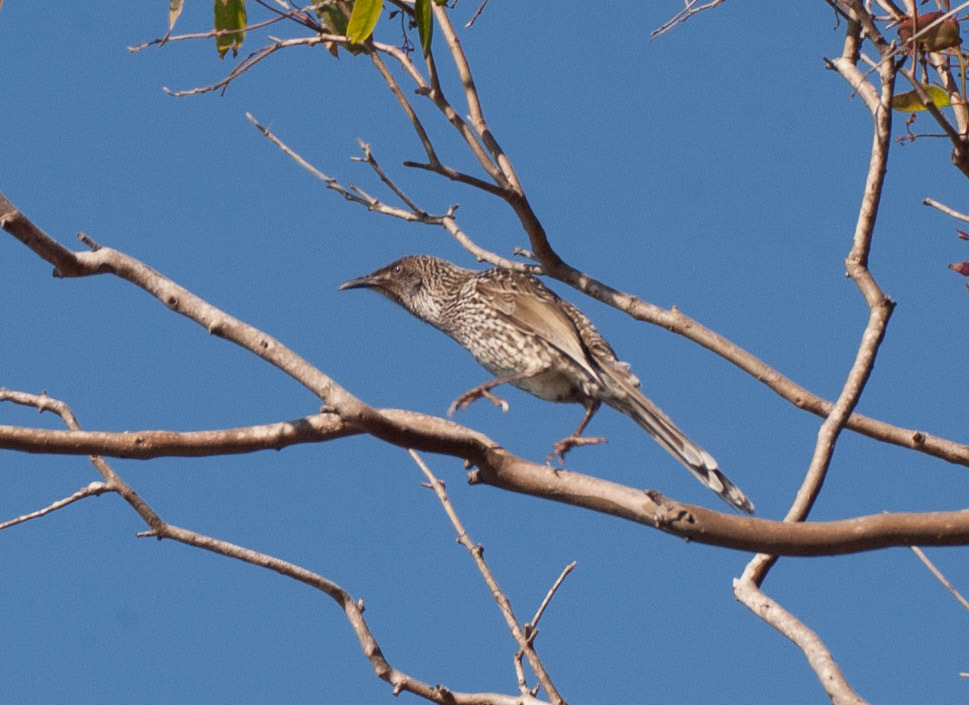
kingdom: Animalia
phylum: Chordata
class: Aves
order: Passeriformes
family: Meliphagidae
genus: Anthochaera
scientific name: Anthochaera chrysoptera
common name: Little wattlebird
